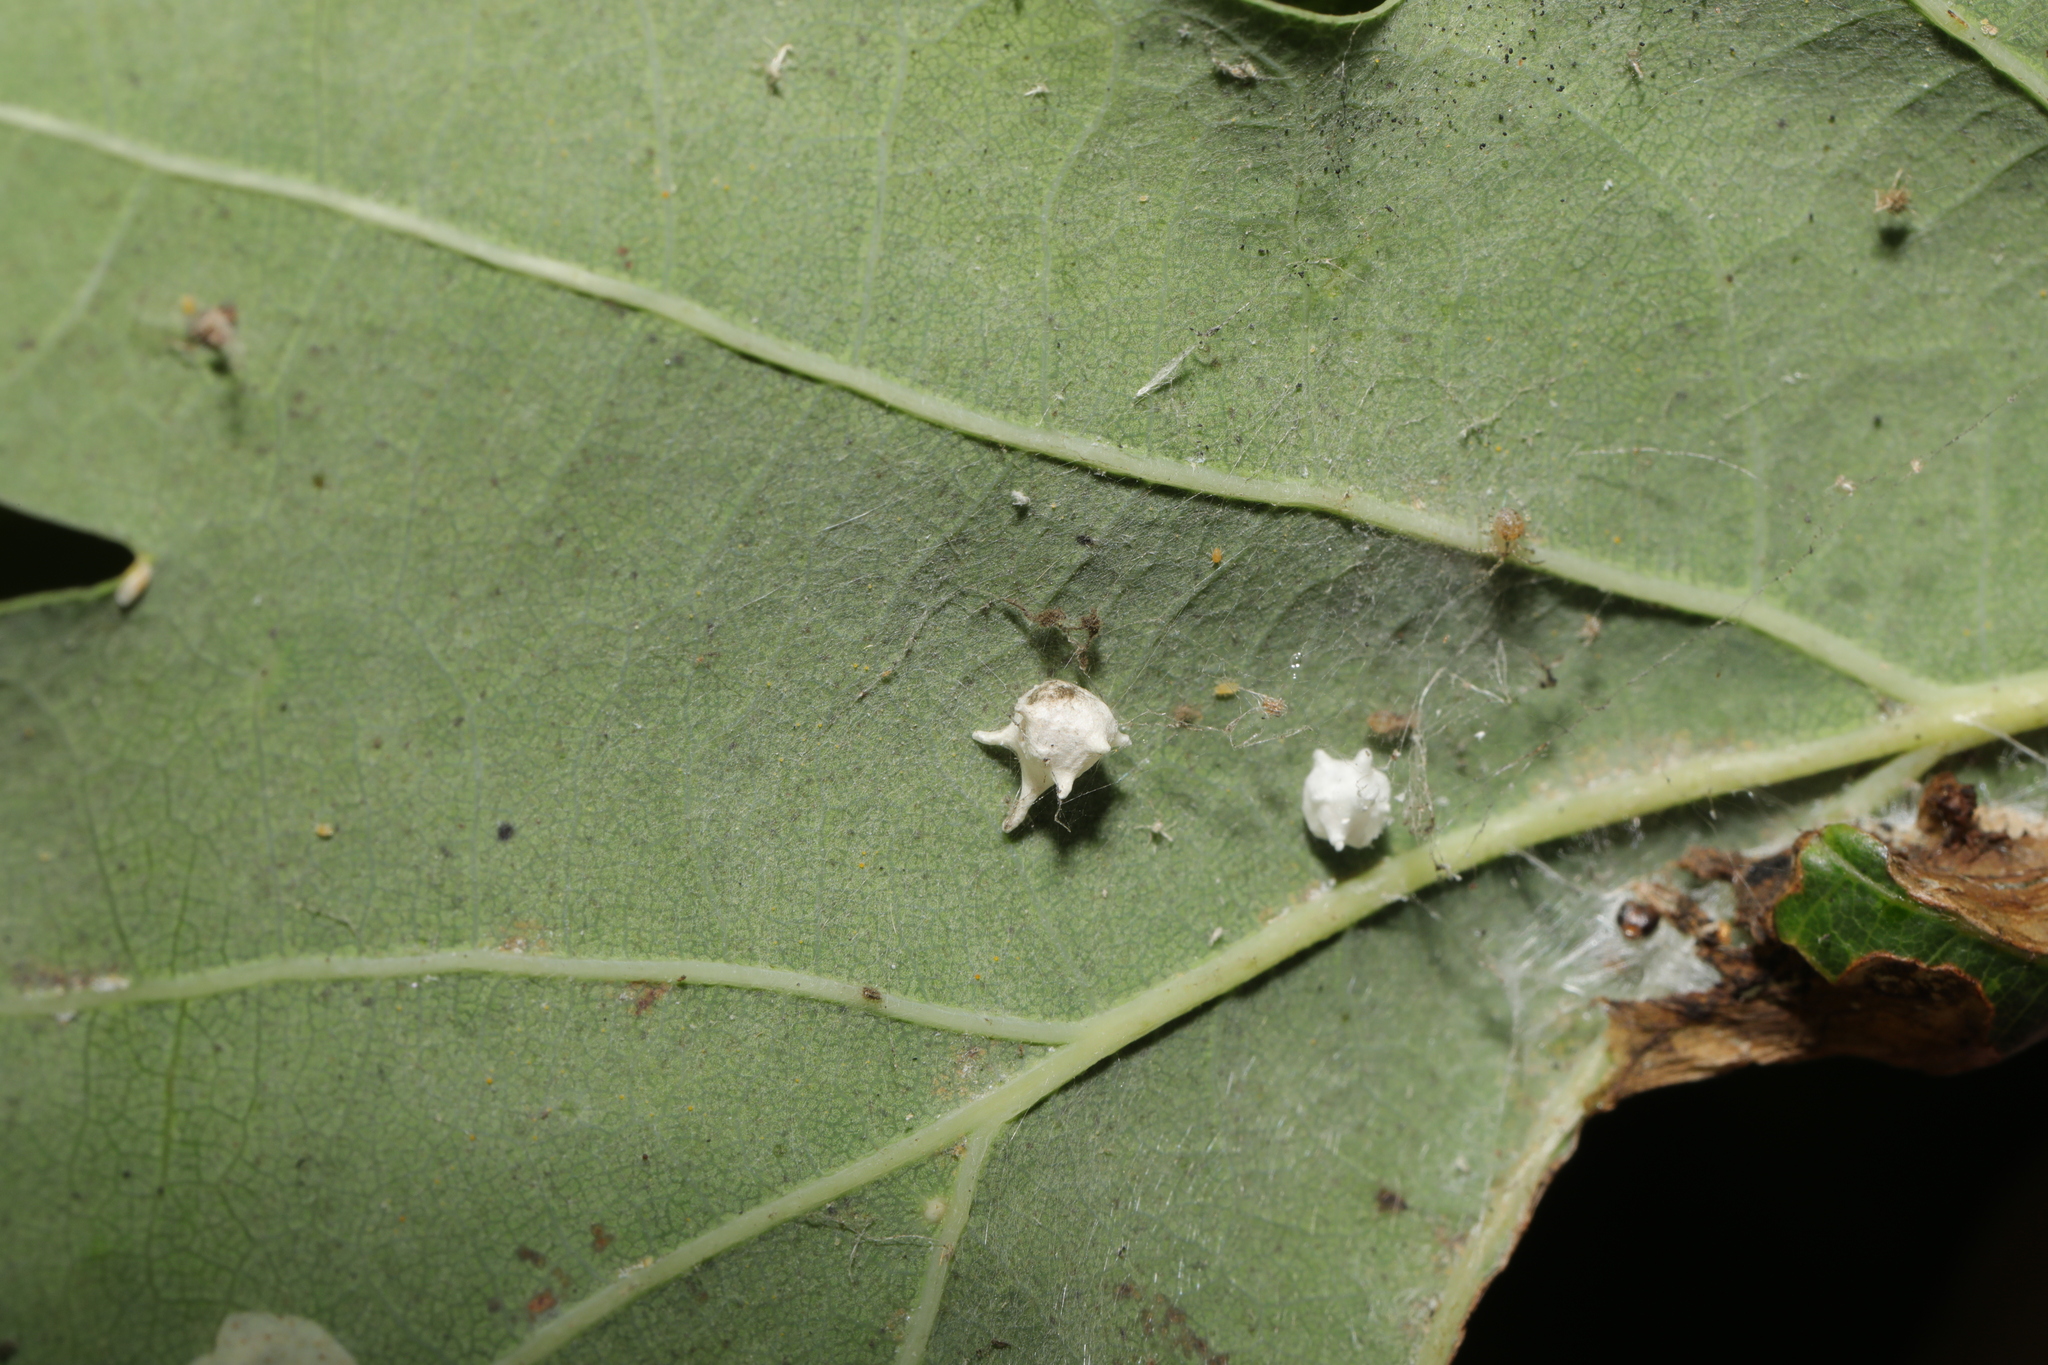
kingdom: Animalia
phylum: Arthropoda
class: Arachnida
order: Araneae
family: Theridiidae
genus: Paidiscura
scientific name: Paidiscura pallens
